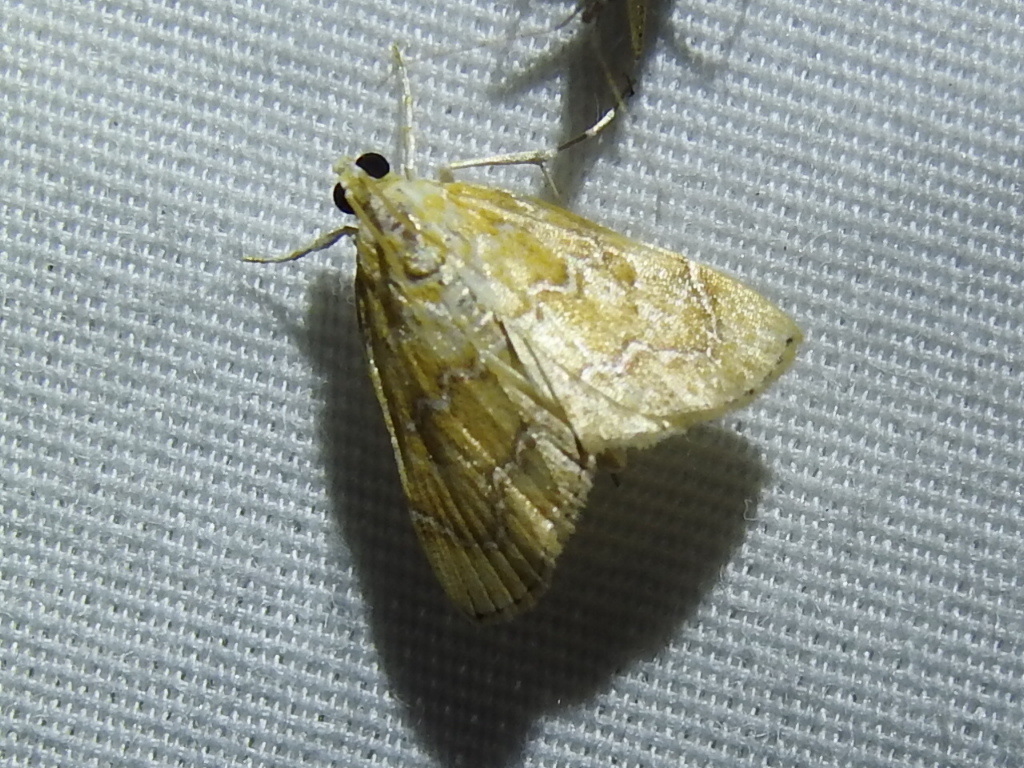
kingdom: Animalia
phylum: Arthropoda
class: Insecta
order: Lepidoptera
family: Crambidae
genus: Glaphyria
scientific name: Glaphyria sesquistrialis
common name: White-roped glaphyria
